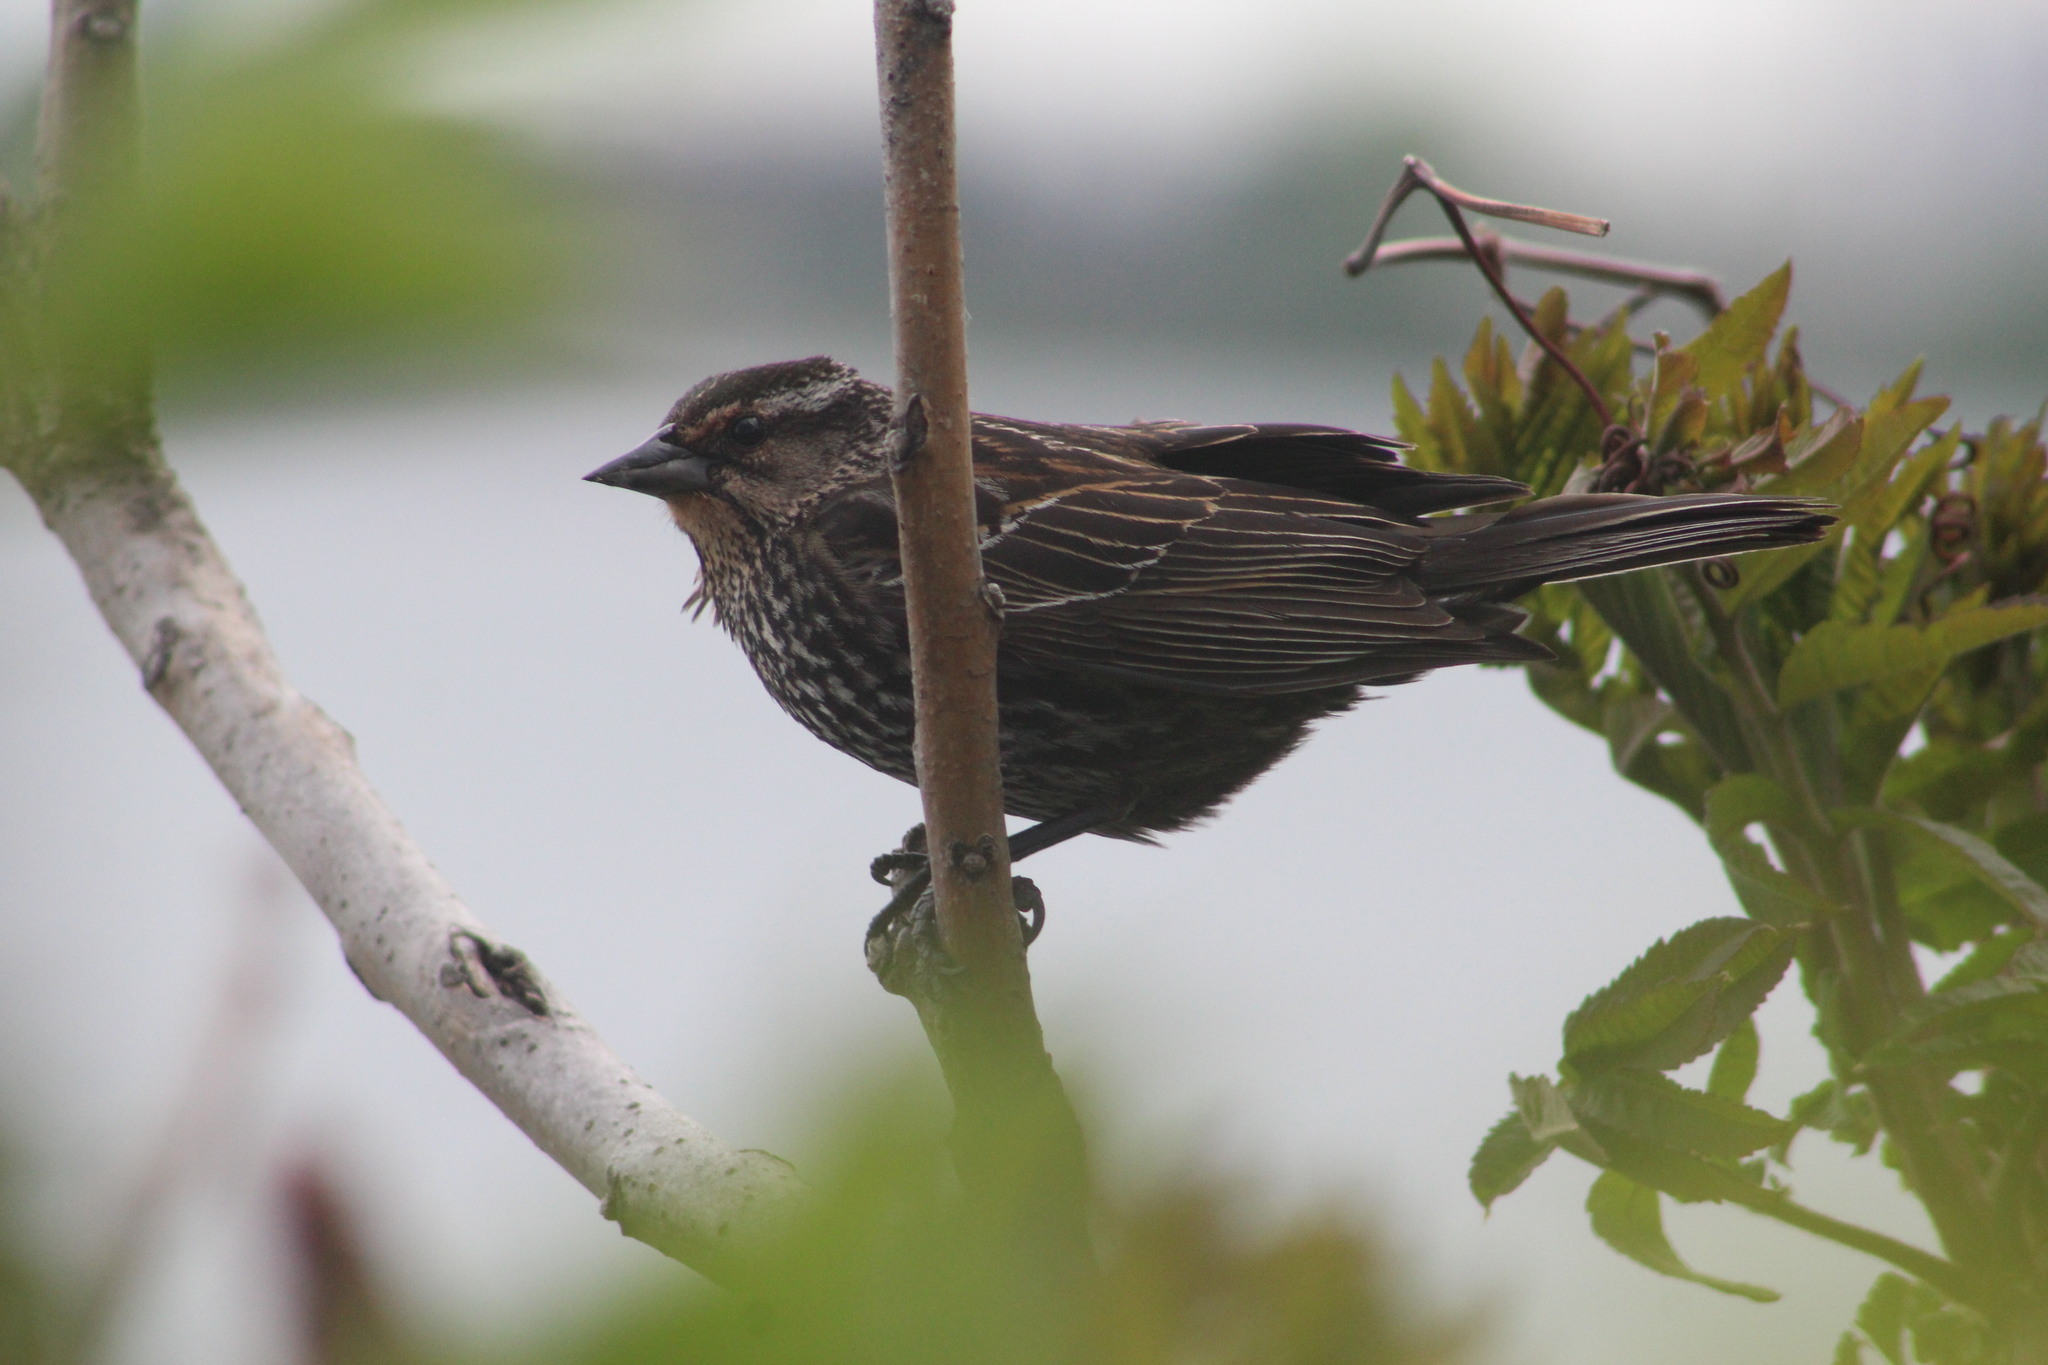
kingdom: Animalia
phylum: Chordata
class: Aves
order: Passeriformes
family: Icteridae
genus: Agelaius
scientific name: Agelaius phoeniceus
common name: Red-winged blackbird
